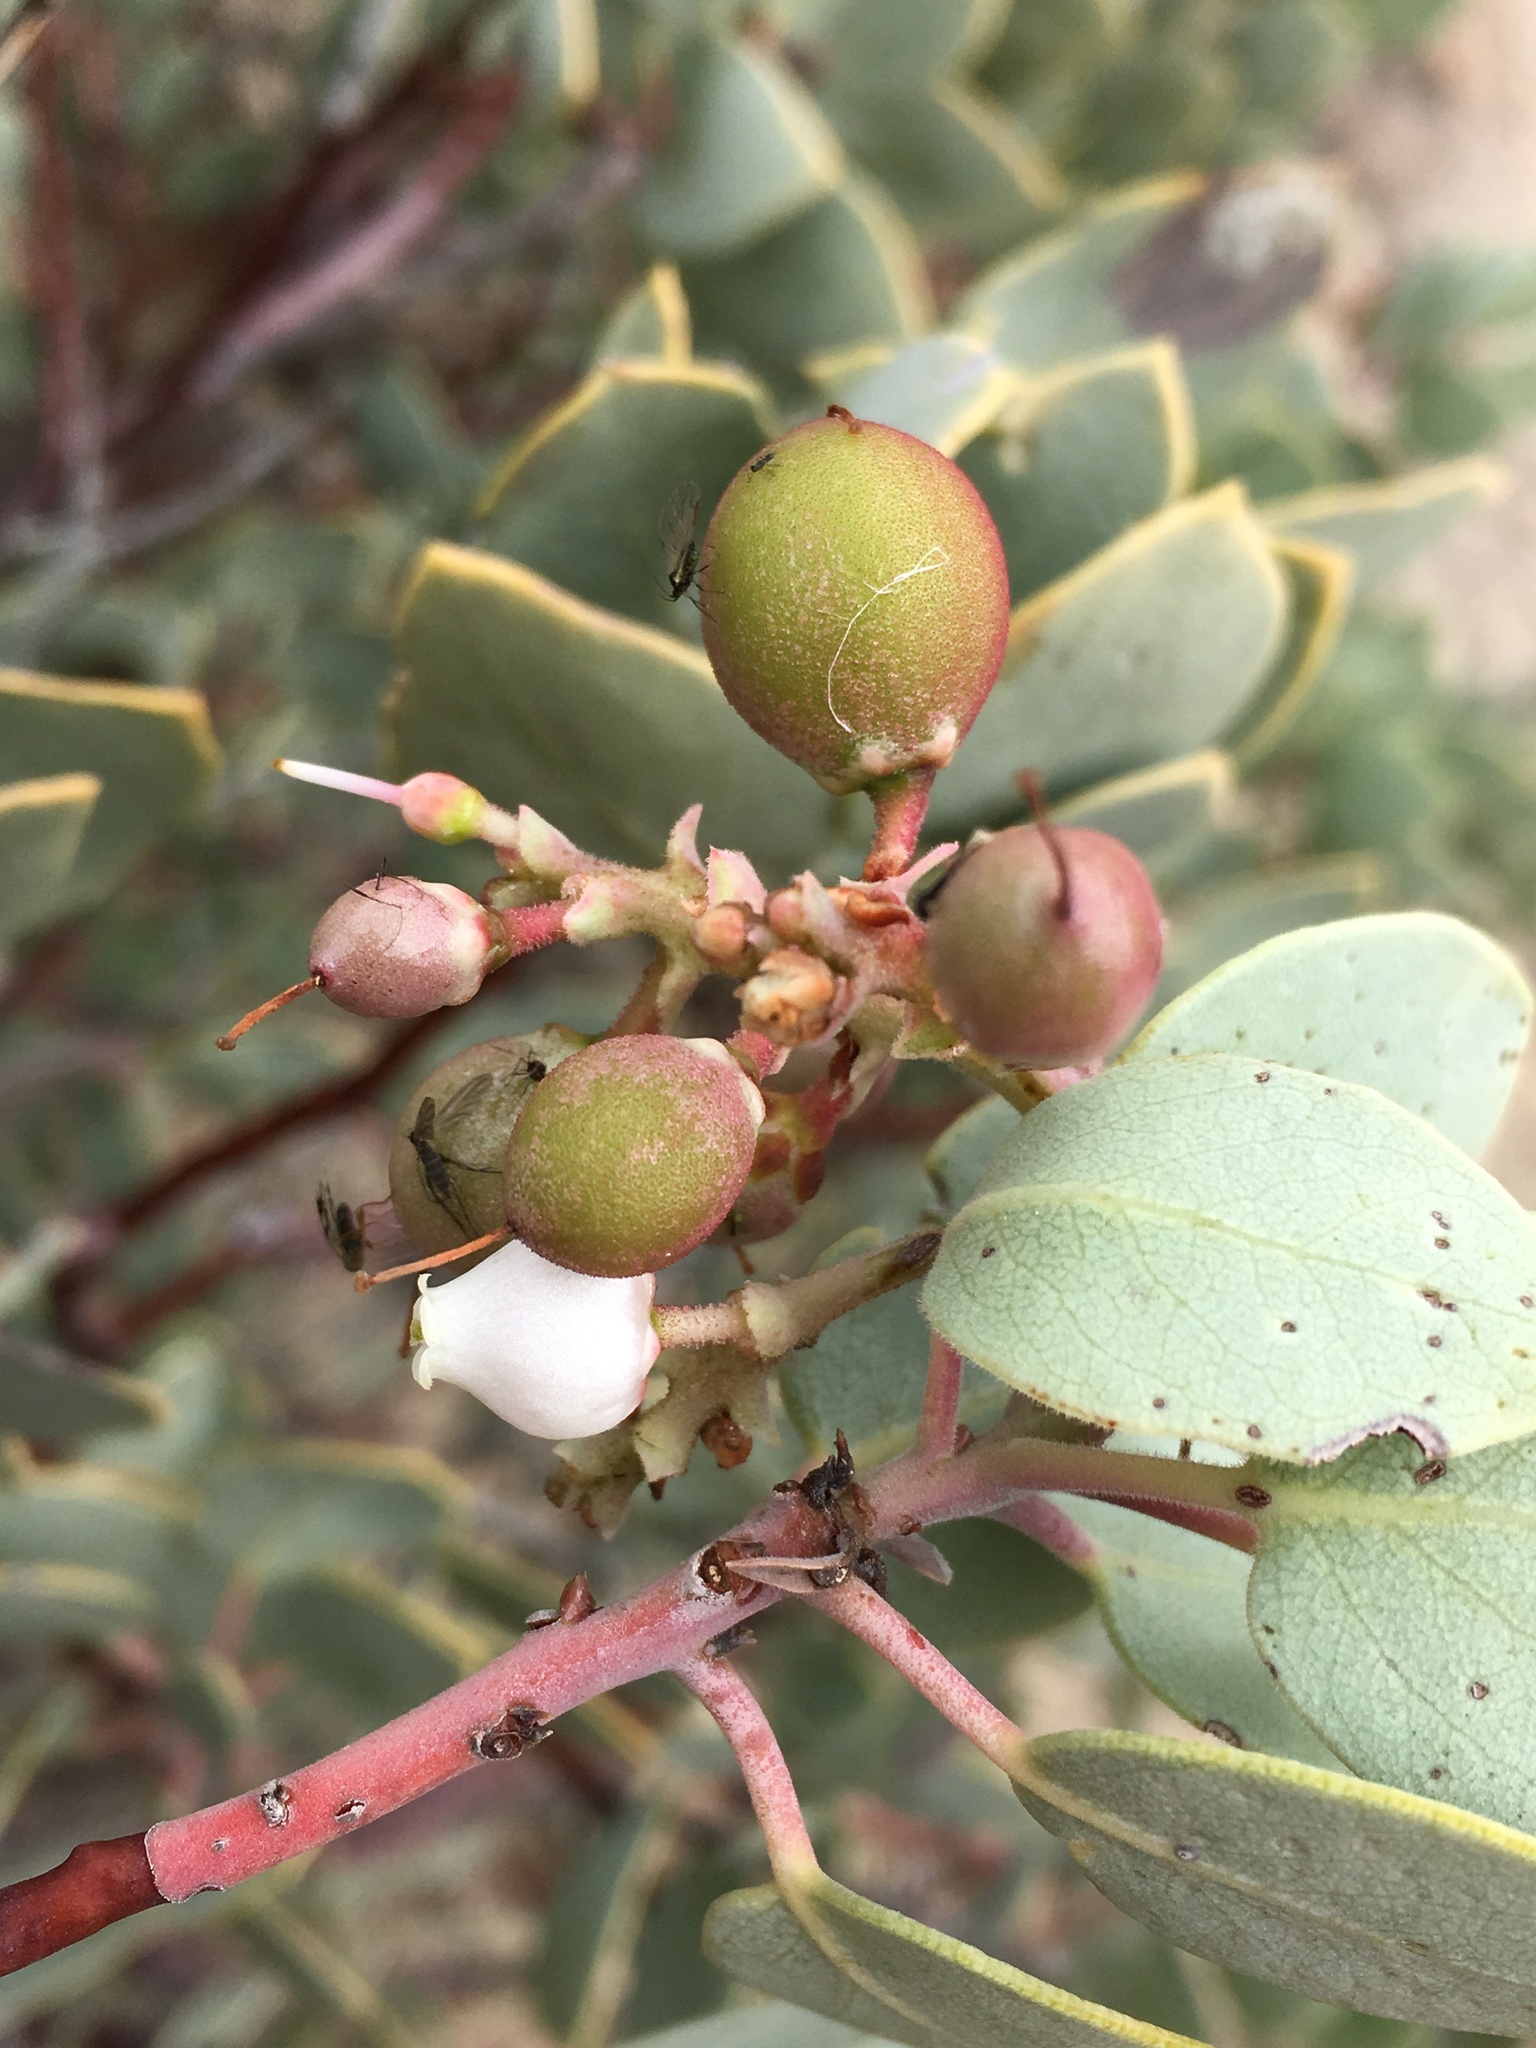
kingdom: Plantae
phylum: Tracheophyta
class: Magnoliopsida
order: Ericales
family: Ericaceae
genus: Arctostaphylos
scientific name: Arctostaphylos glauca
